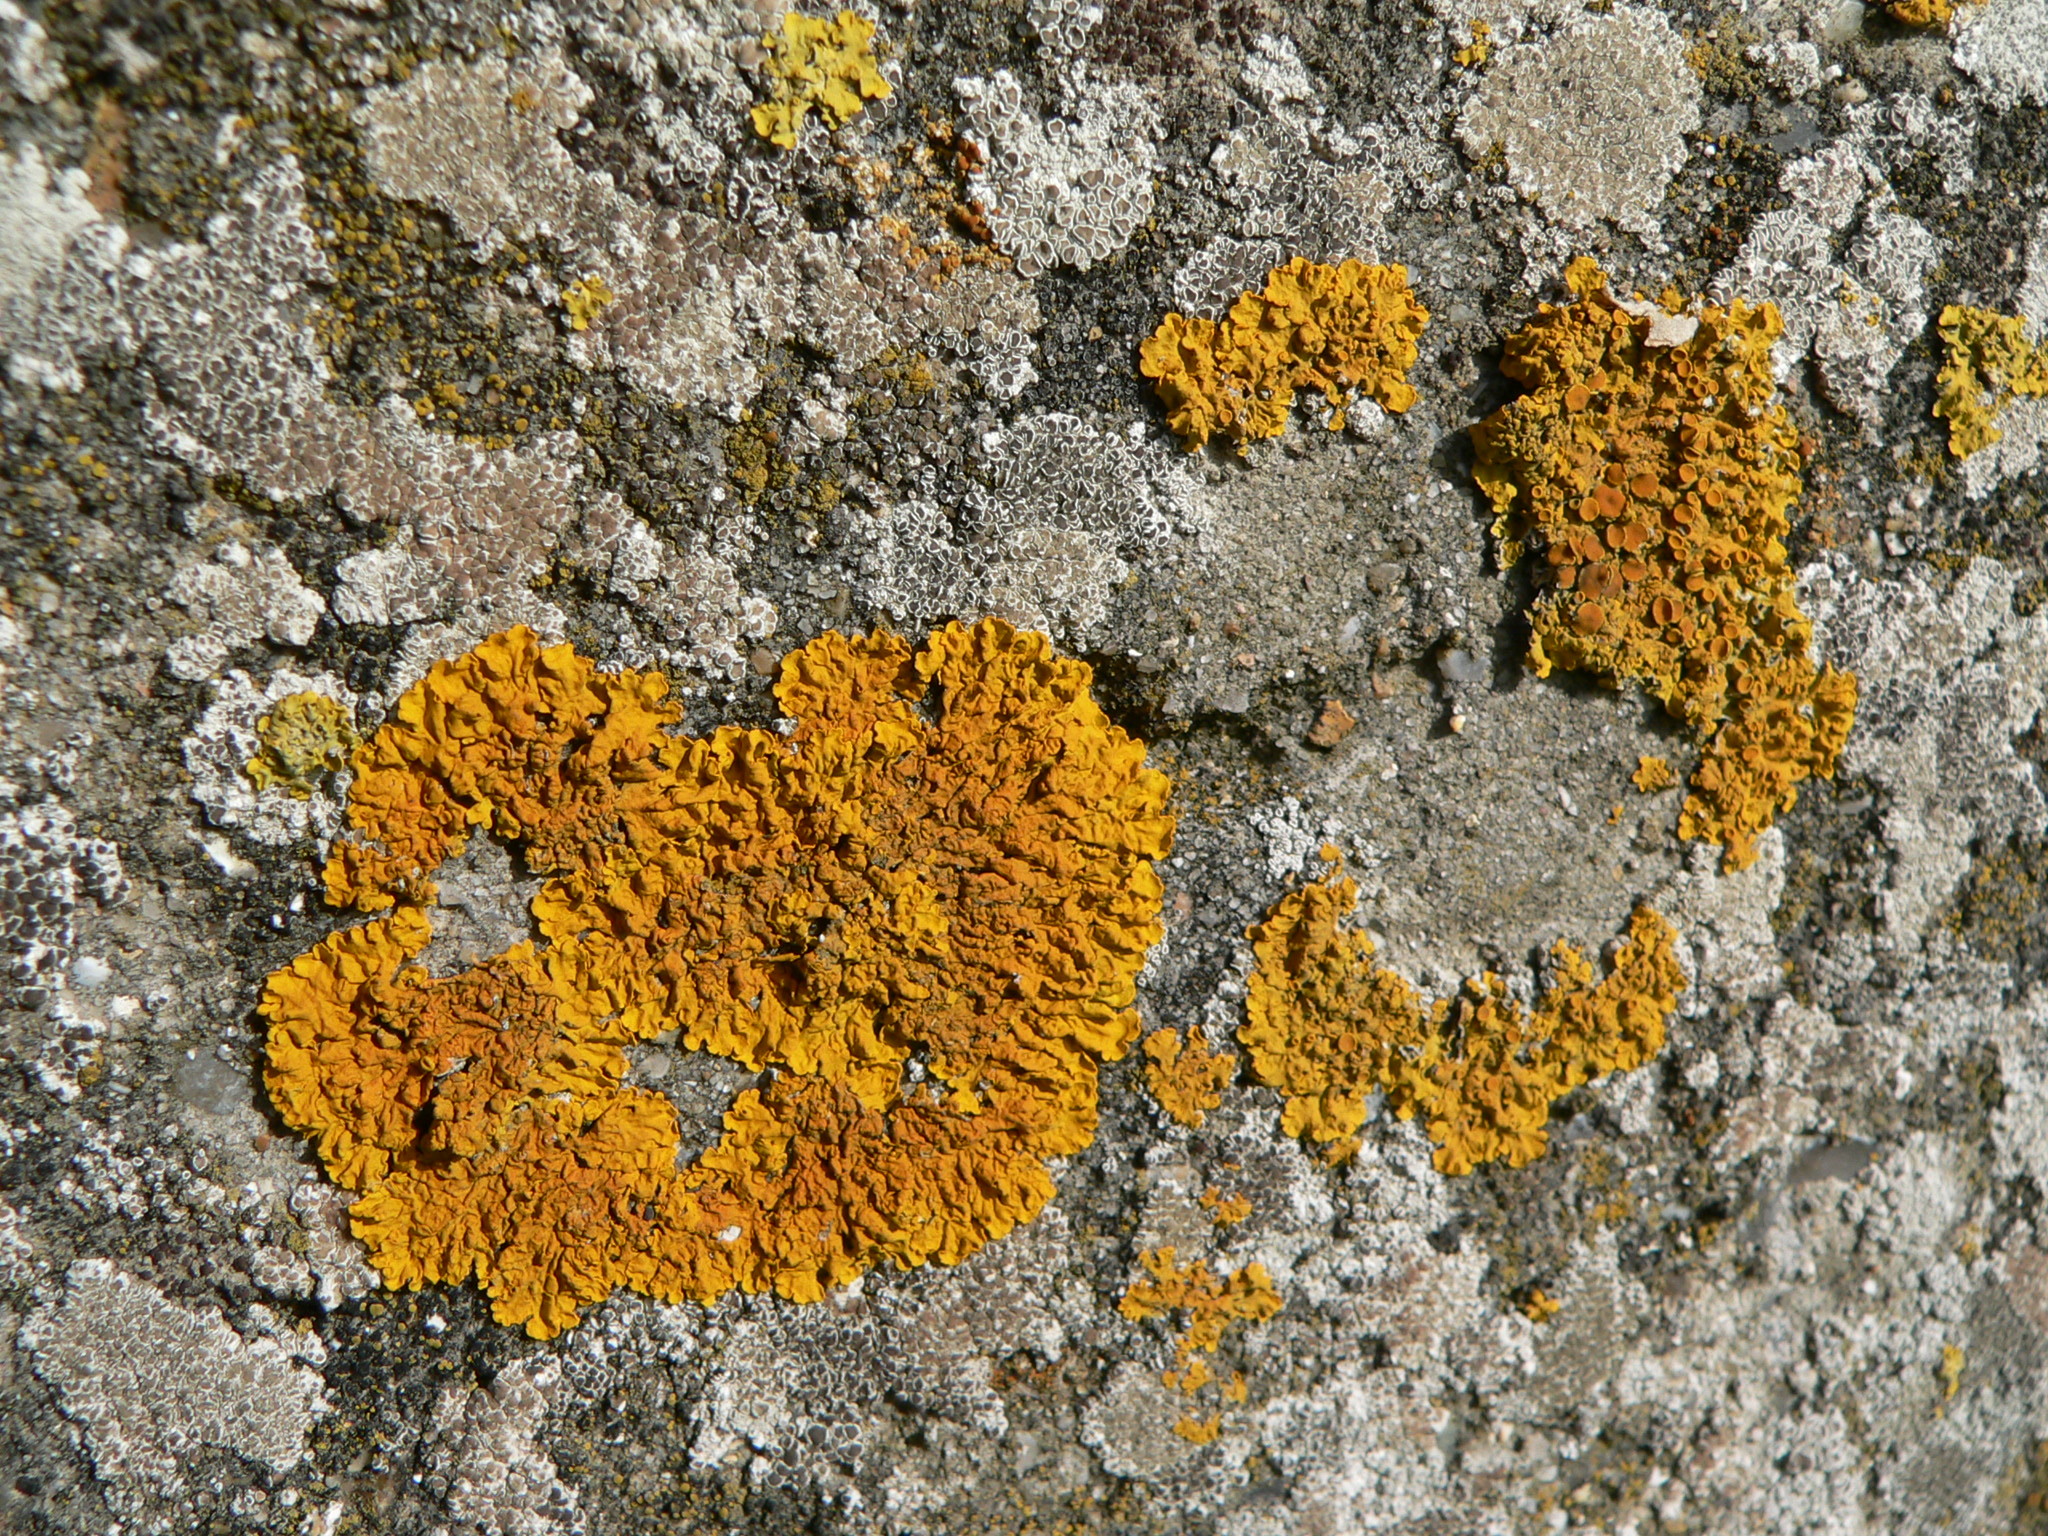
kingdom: Fungi
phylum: Ascomycota
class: Lecanoromycetes
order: Teloschistales
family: Teloschistaceae
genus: Xanthoria
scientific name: Xanthoria parietina
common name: Common orange lichen
